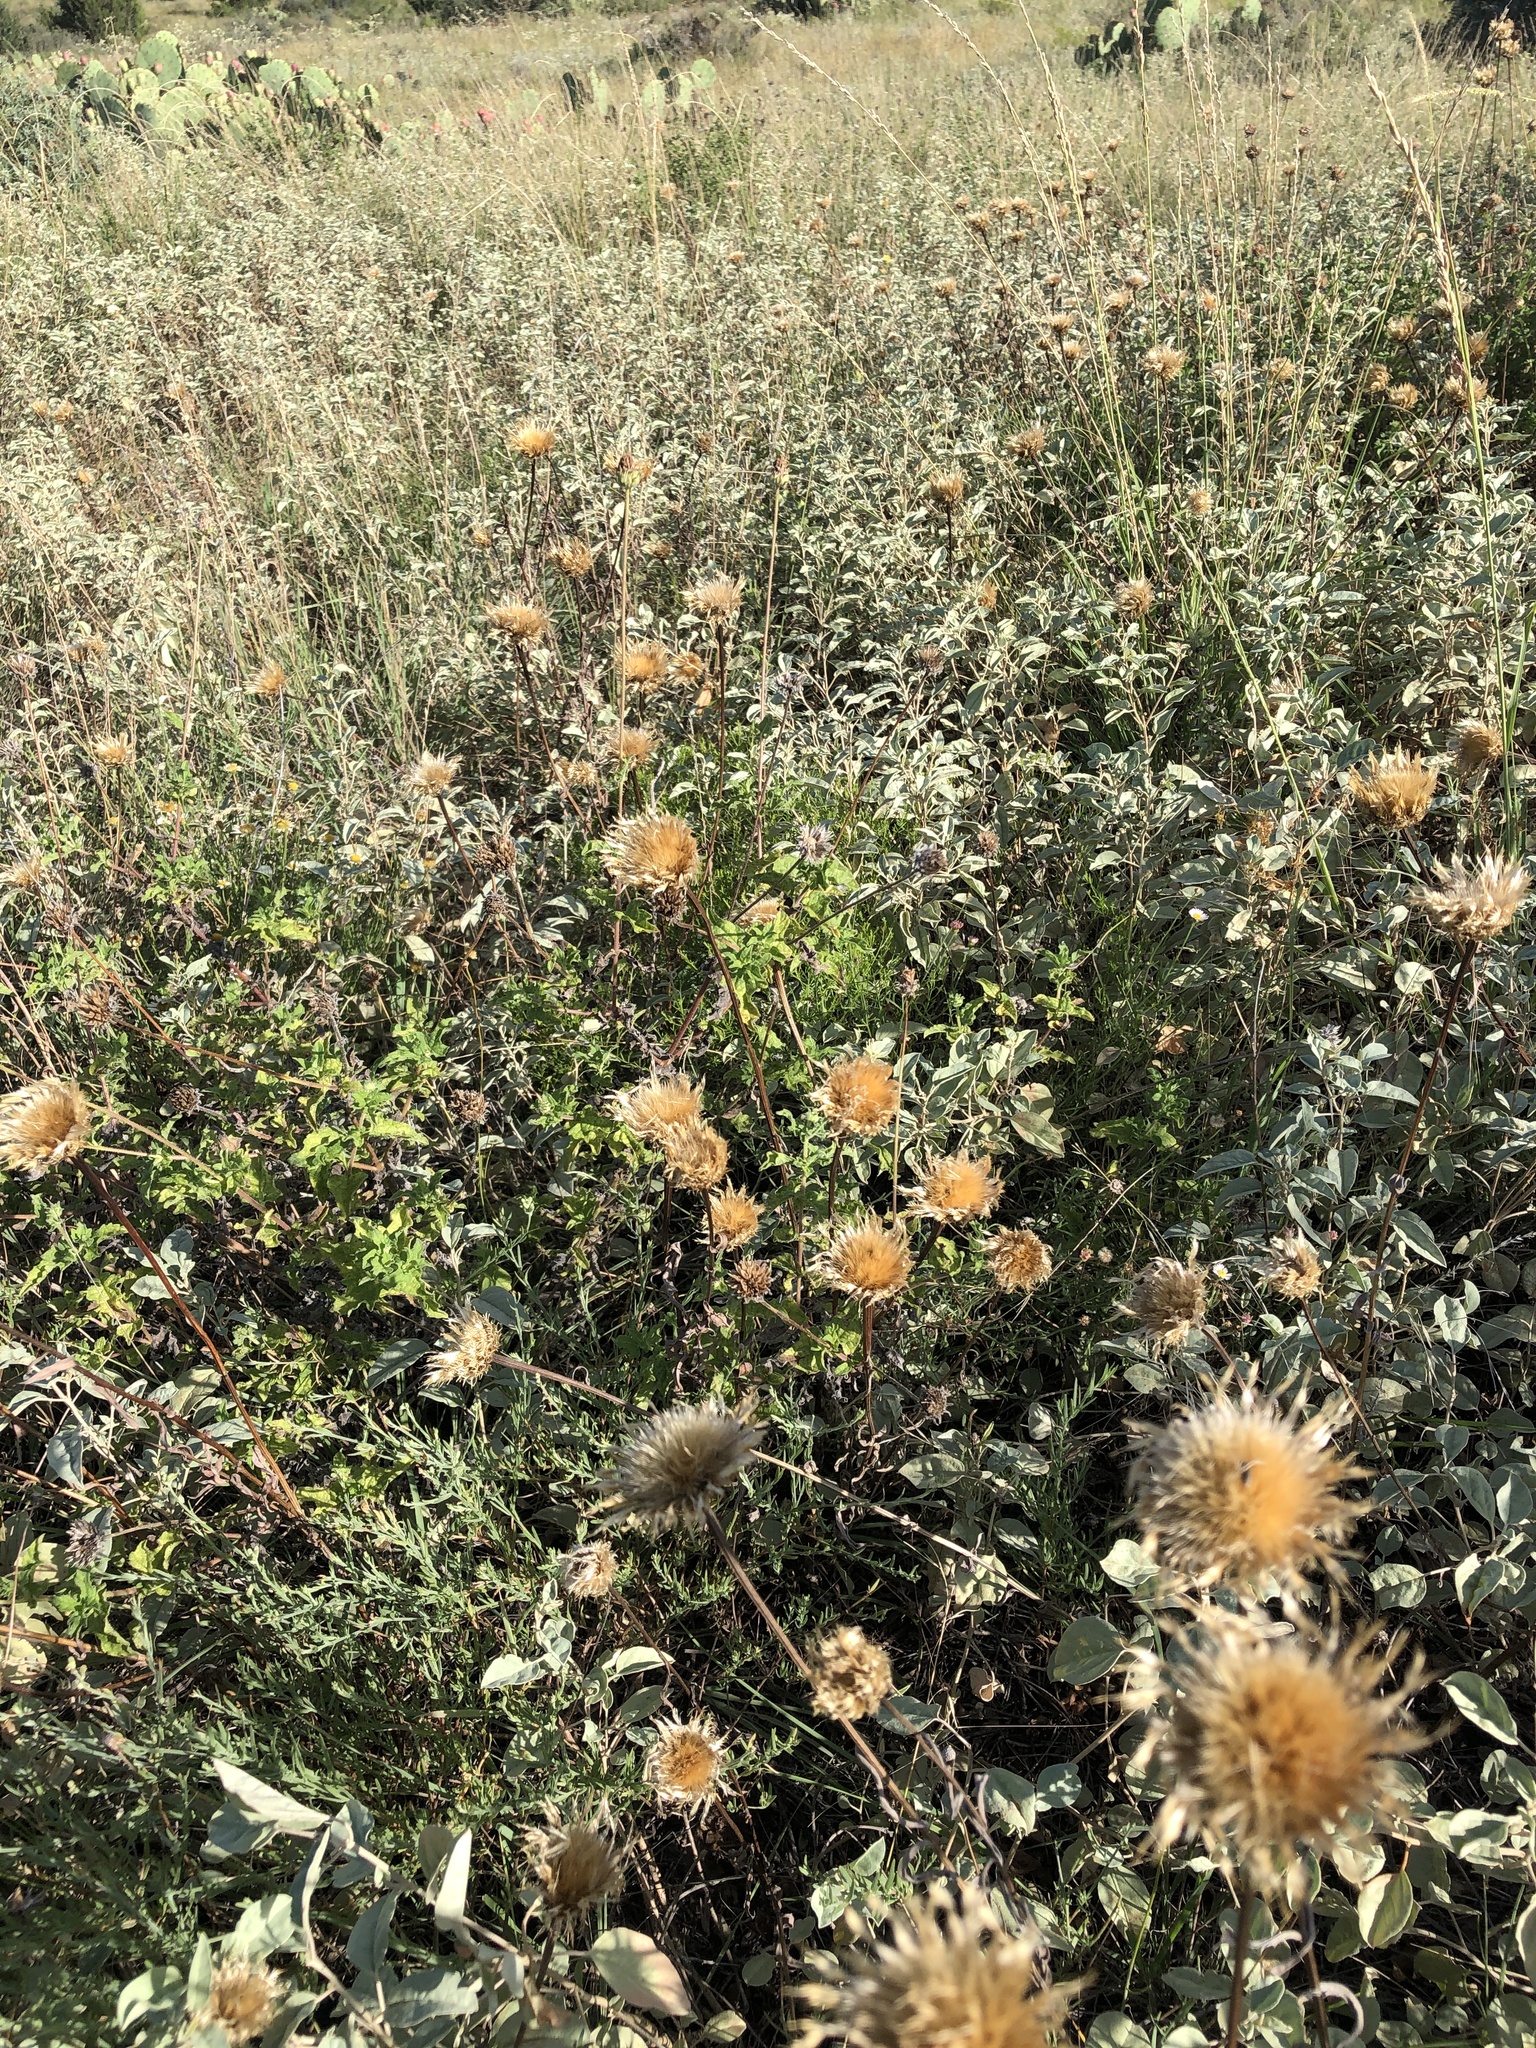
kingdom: Plantae
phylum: Tracheophyta
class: Magnoliopsida
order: Asterales
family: Asteraceae
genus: Plectocephalus
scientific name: Plectocephalus americanus
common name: American basket-flower
